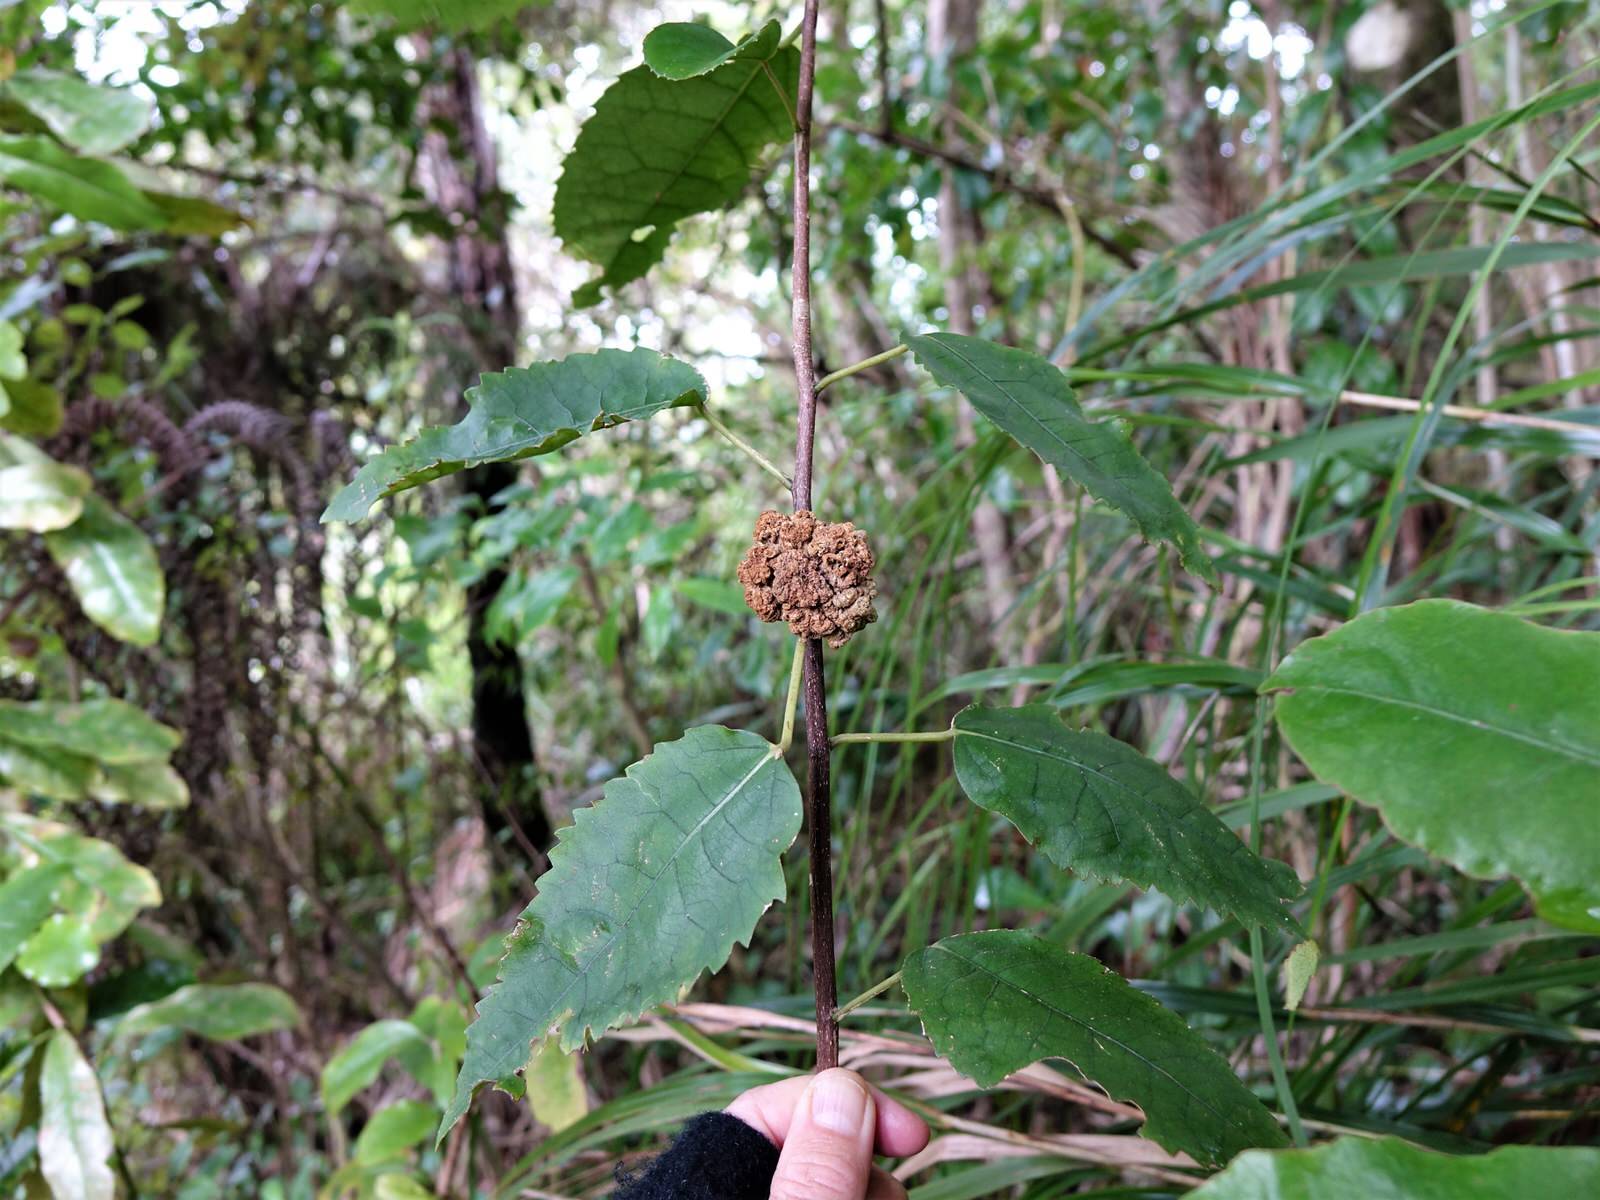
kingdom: Animalia
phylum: Arthropoda
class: Arachnida
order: Trombidiformes
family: Eriophyidae
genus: Eriophyes
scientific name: Eriophyes hoheriae
